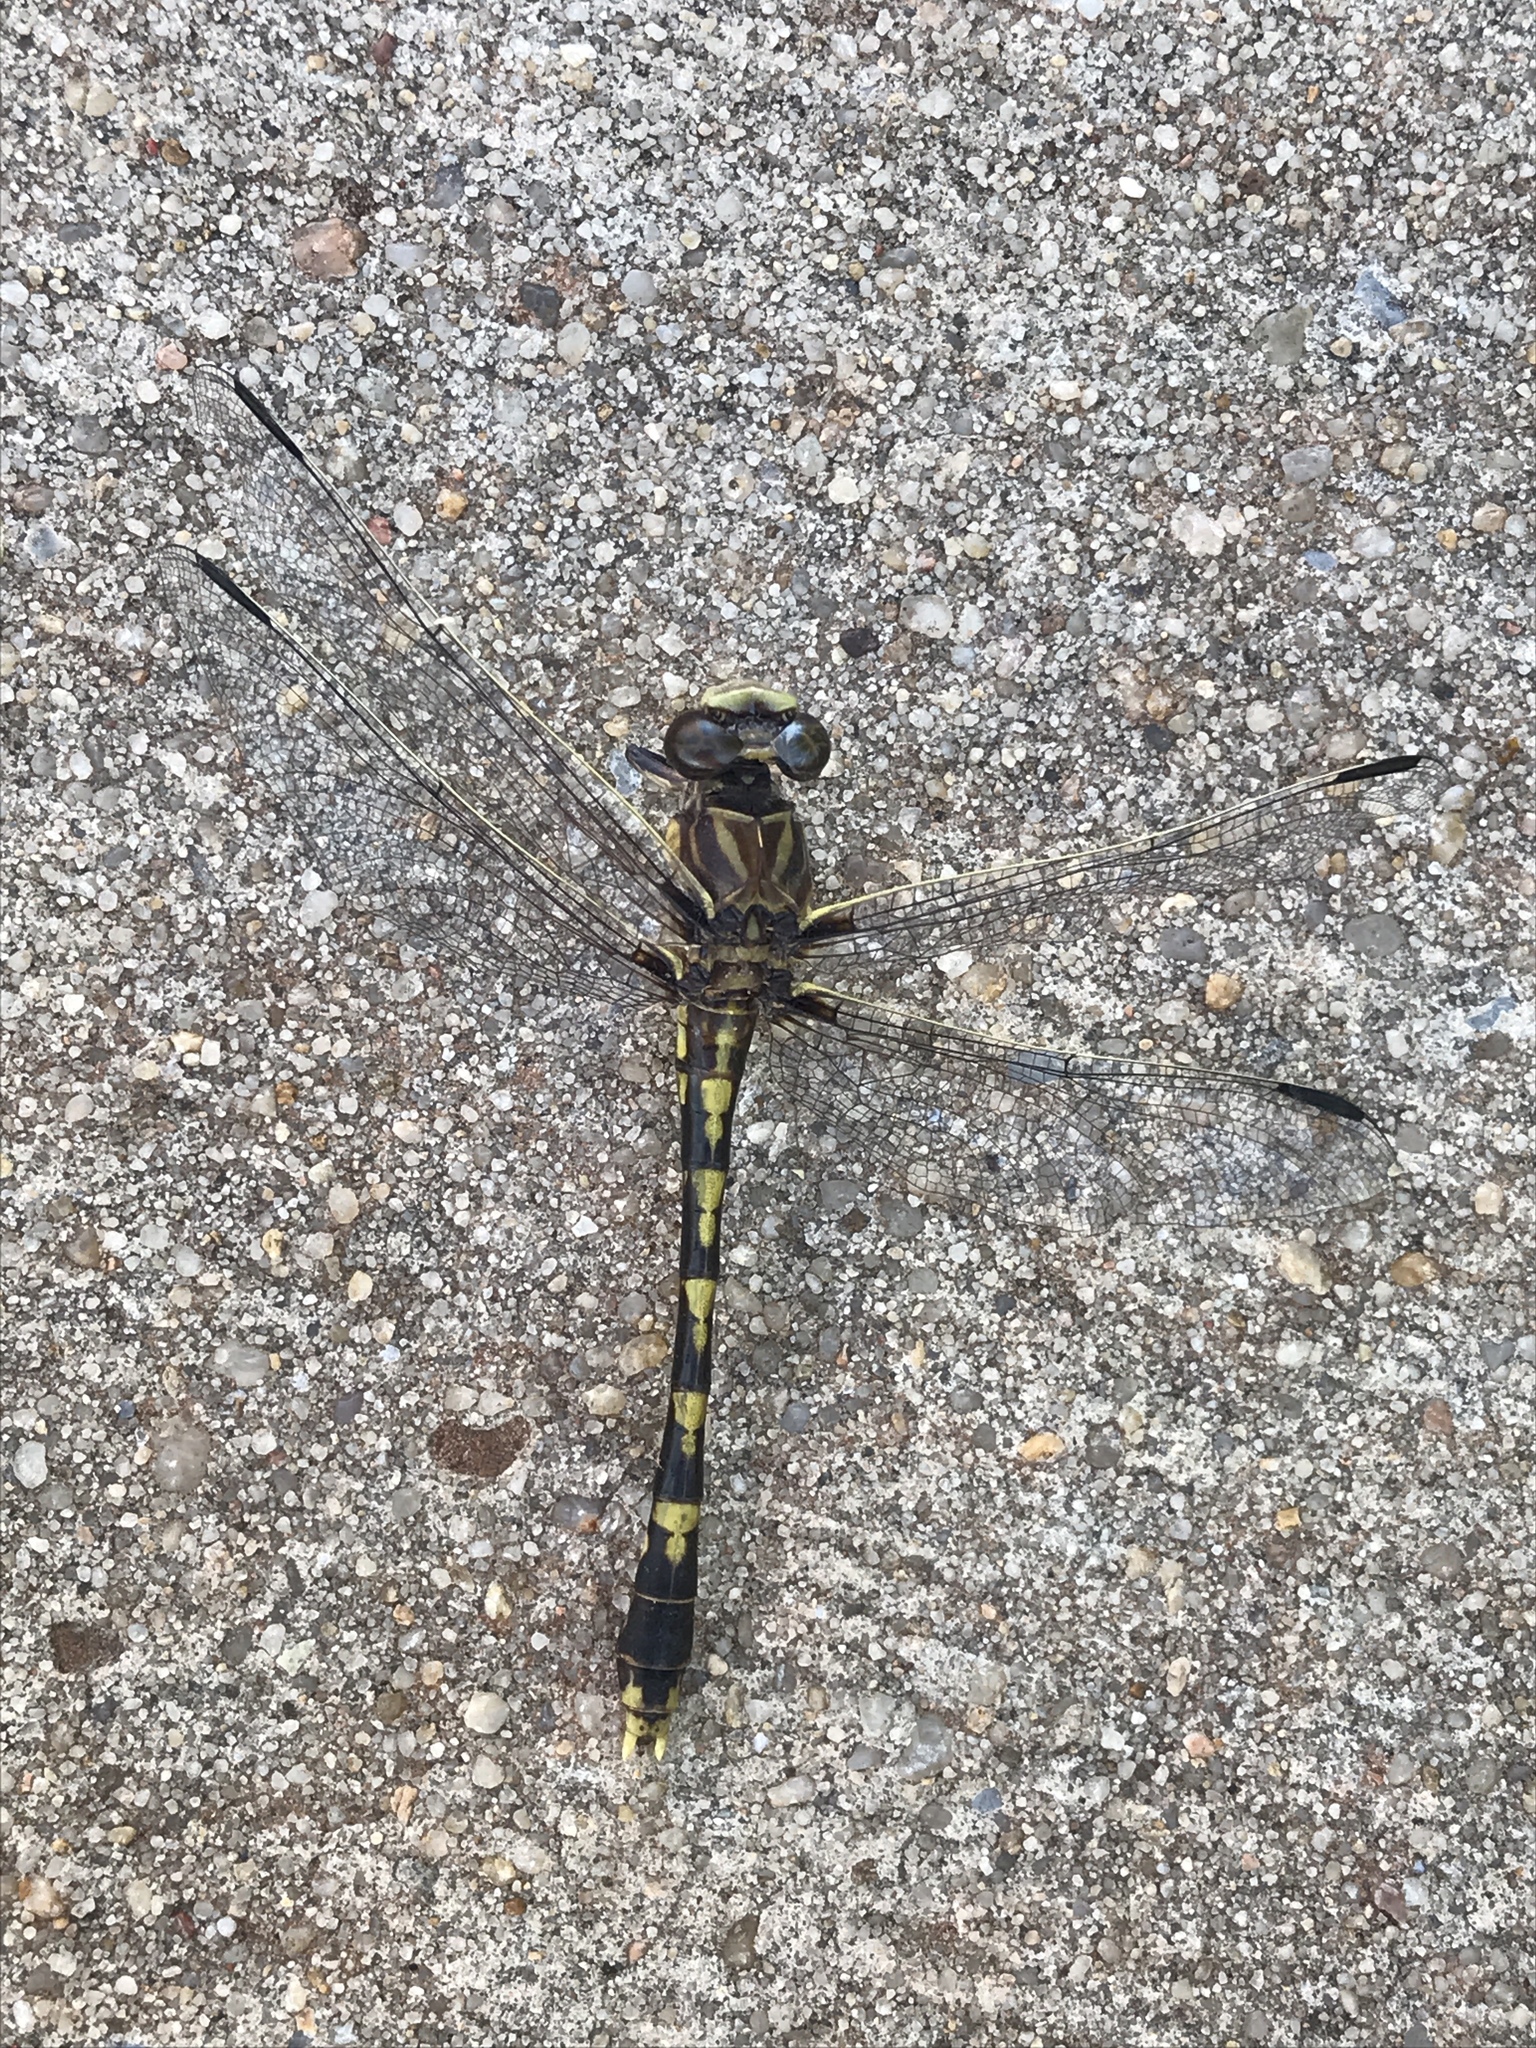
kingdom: Animalia
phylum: Arthropoda
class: Insecta
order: Odonata
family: Gomphidae
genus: Progomphus
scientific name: Progomphus obscurus
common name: Common sanddragon
